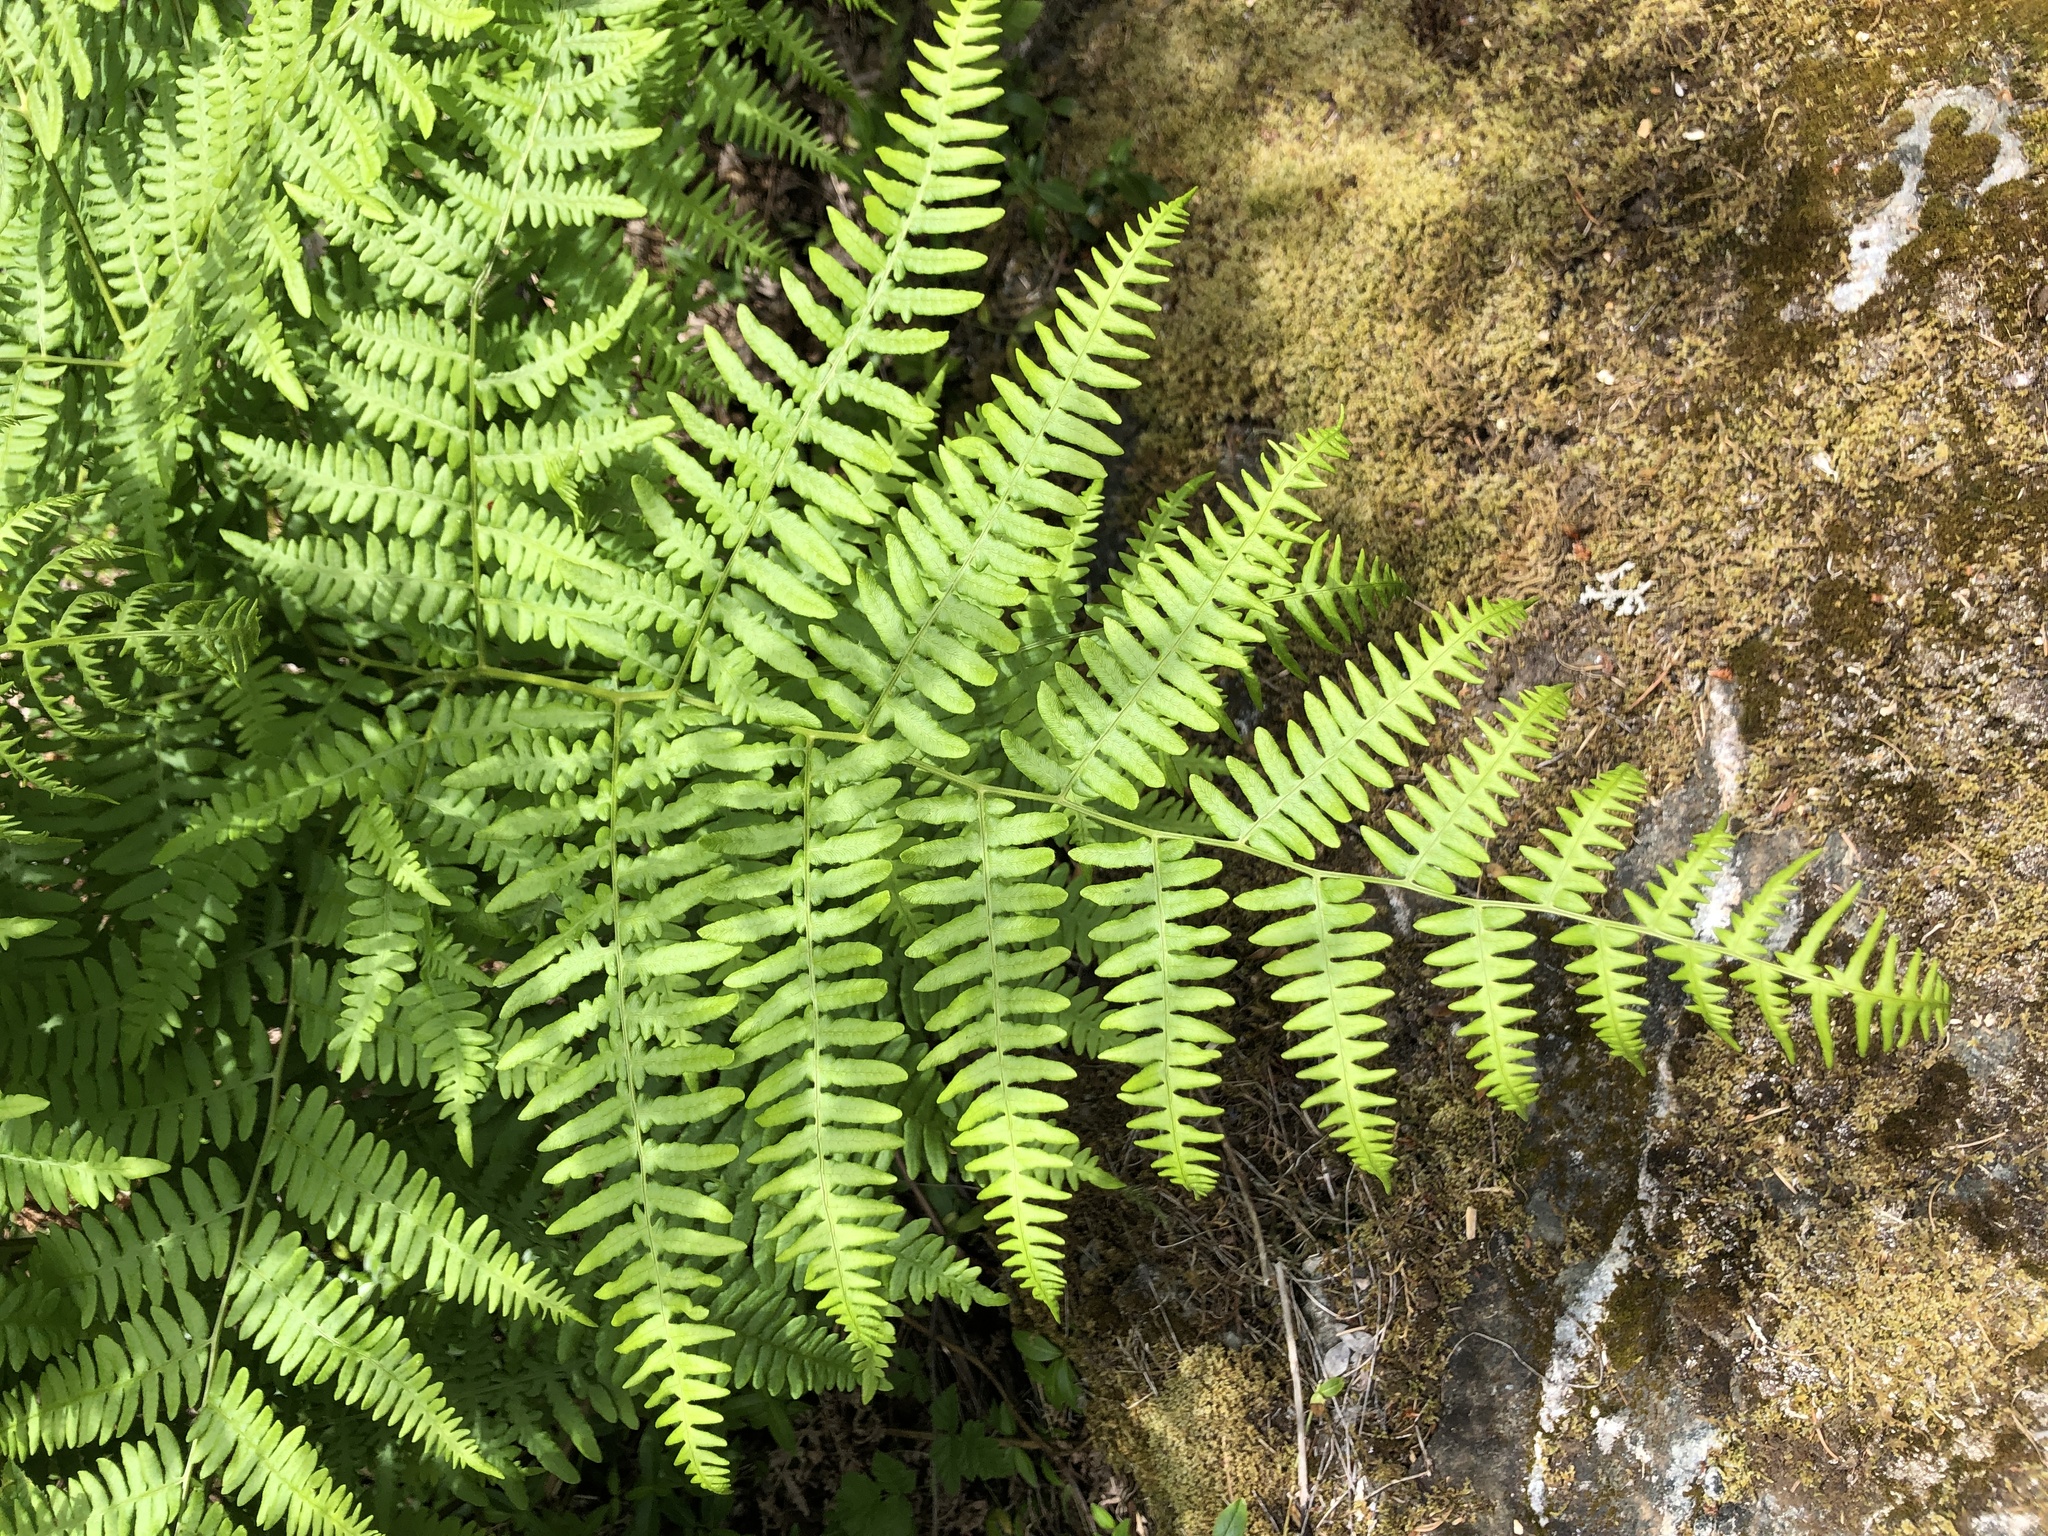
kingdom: Plantae
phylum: Tracheophyta
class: Polypodiopsida
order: Polypodiales
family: Dennstaedtiaceae
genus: Pteridium
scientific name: Pteridium aquilinum
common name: Bracken
